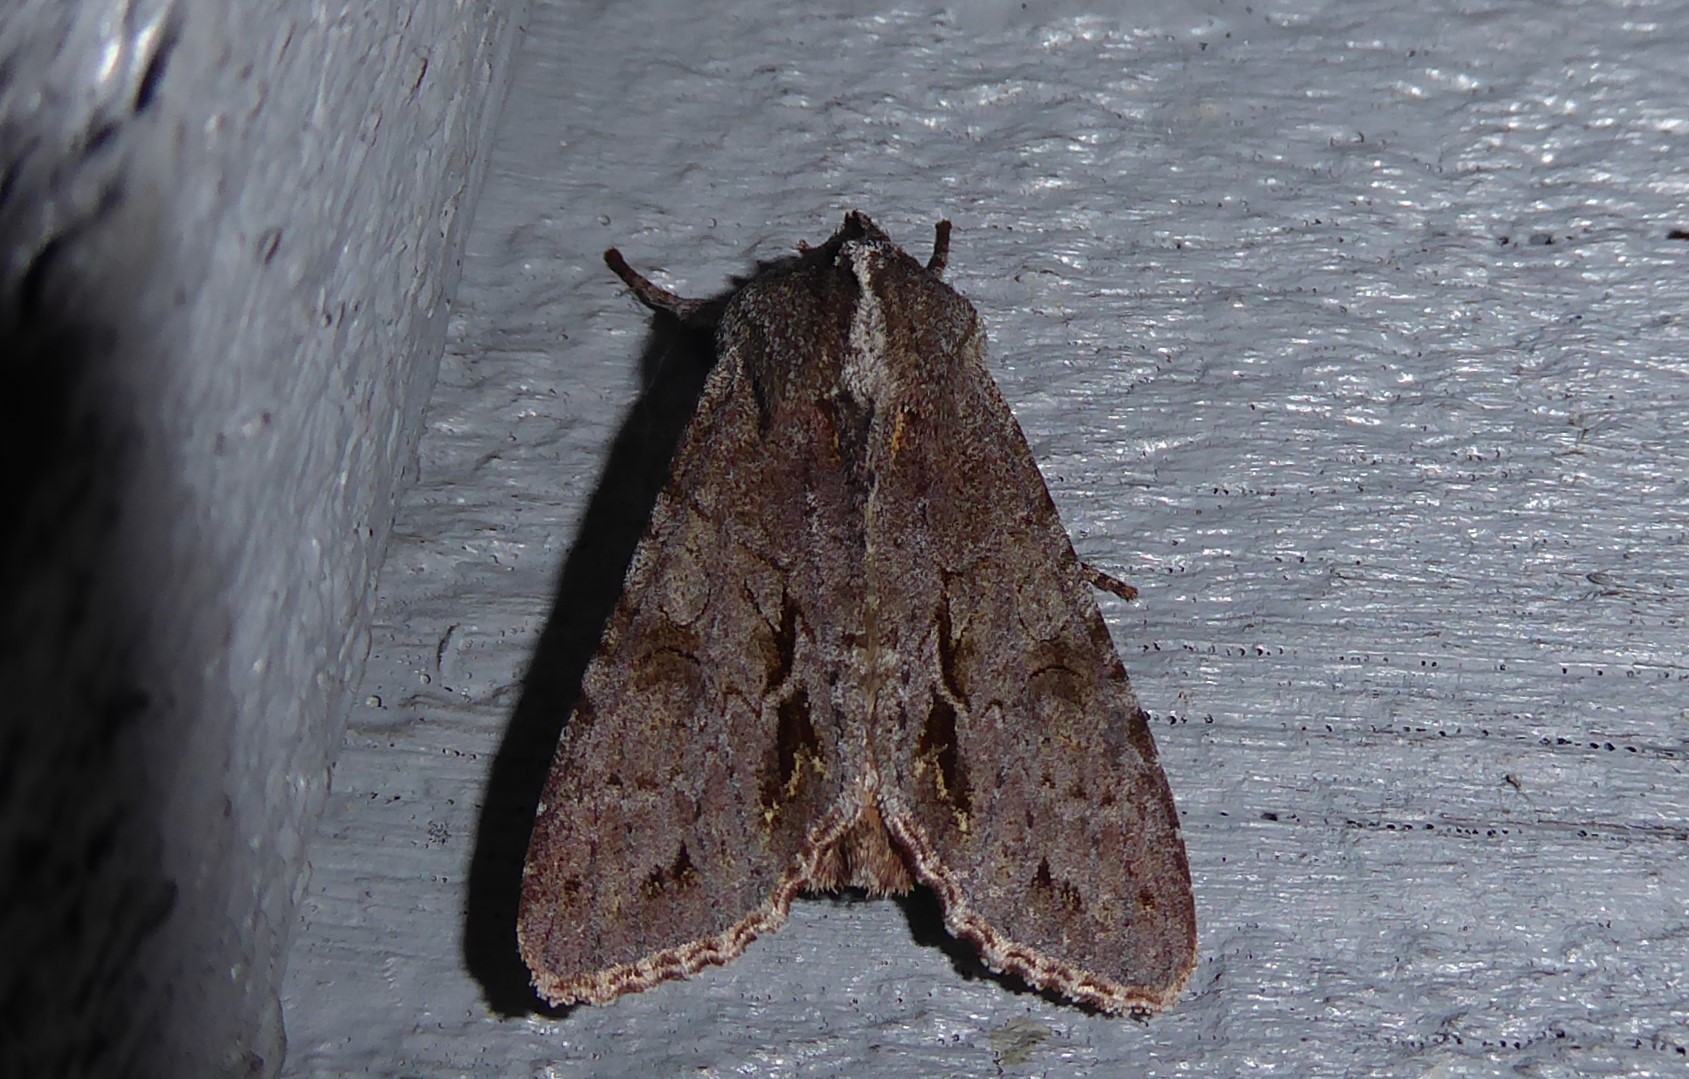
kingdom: Animalia
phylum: Arthropoda
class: Insecta
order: Lepidoptera
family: Noctuidae
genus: Ichneutica
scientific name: Ichneutica
